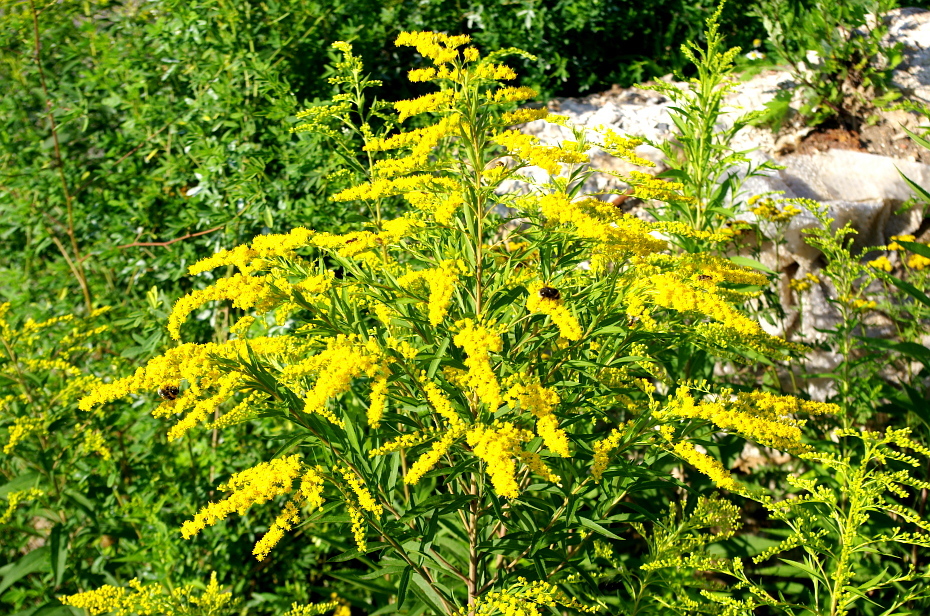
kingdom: Plantae
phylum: Tracheophyta
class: Magnoliopsida
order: Asterales
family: Asteraceae
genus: Solidago
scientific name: Solidago gigantea
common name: Giant goldenrod
